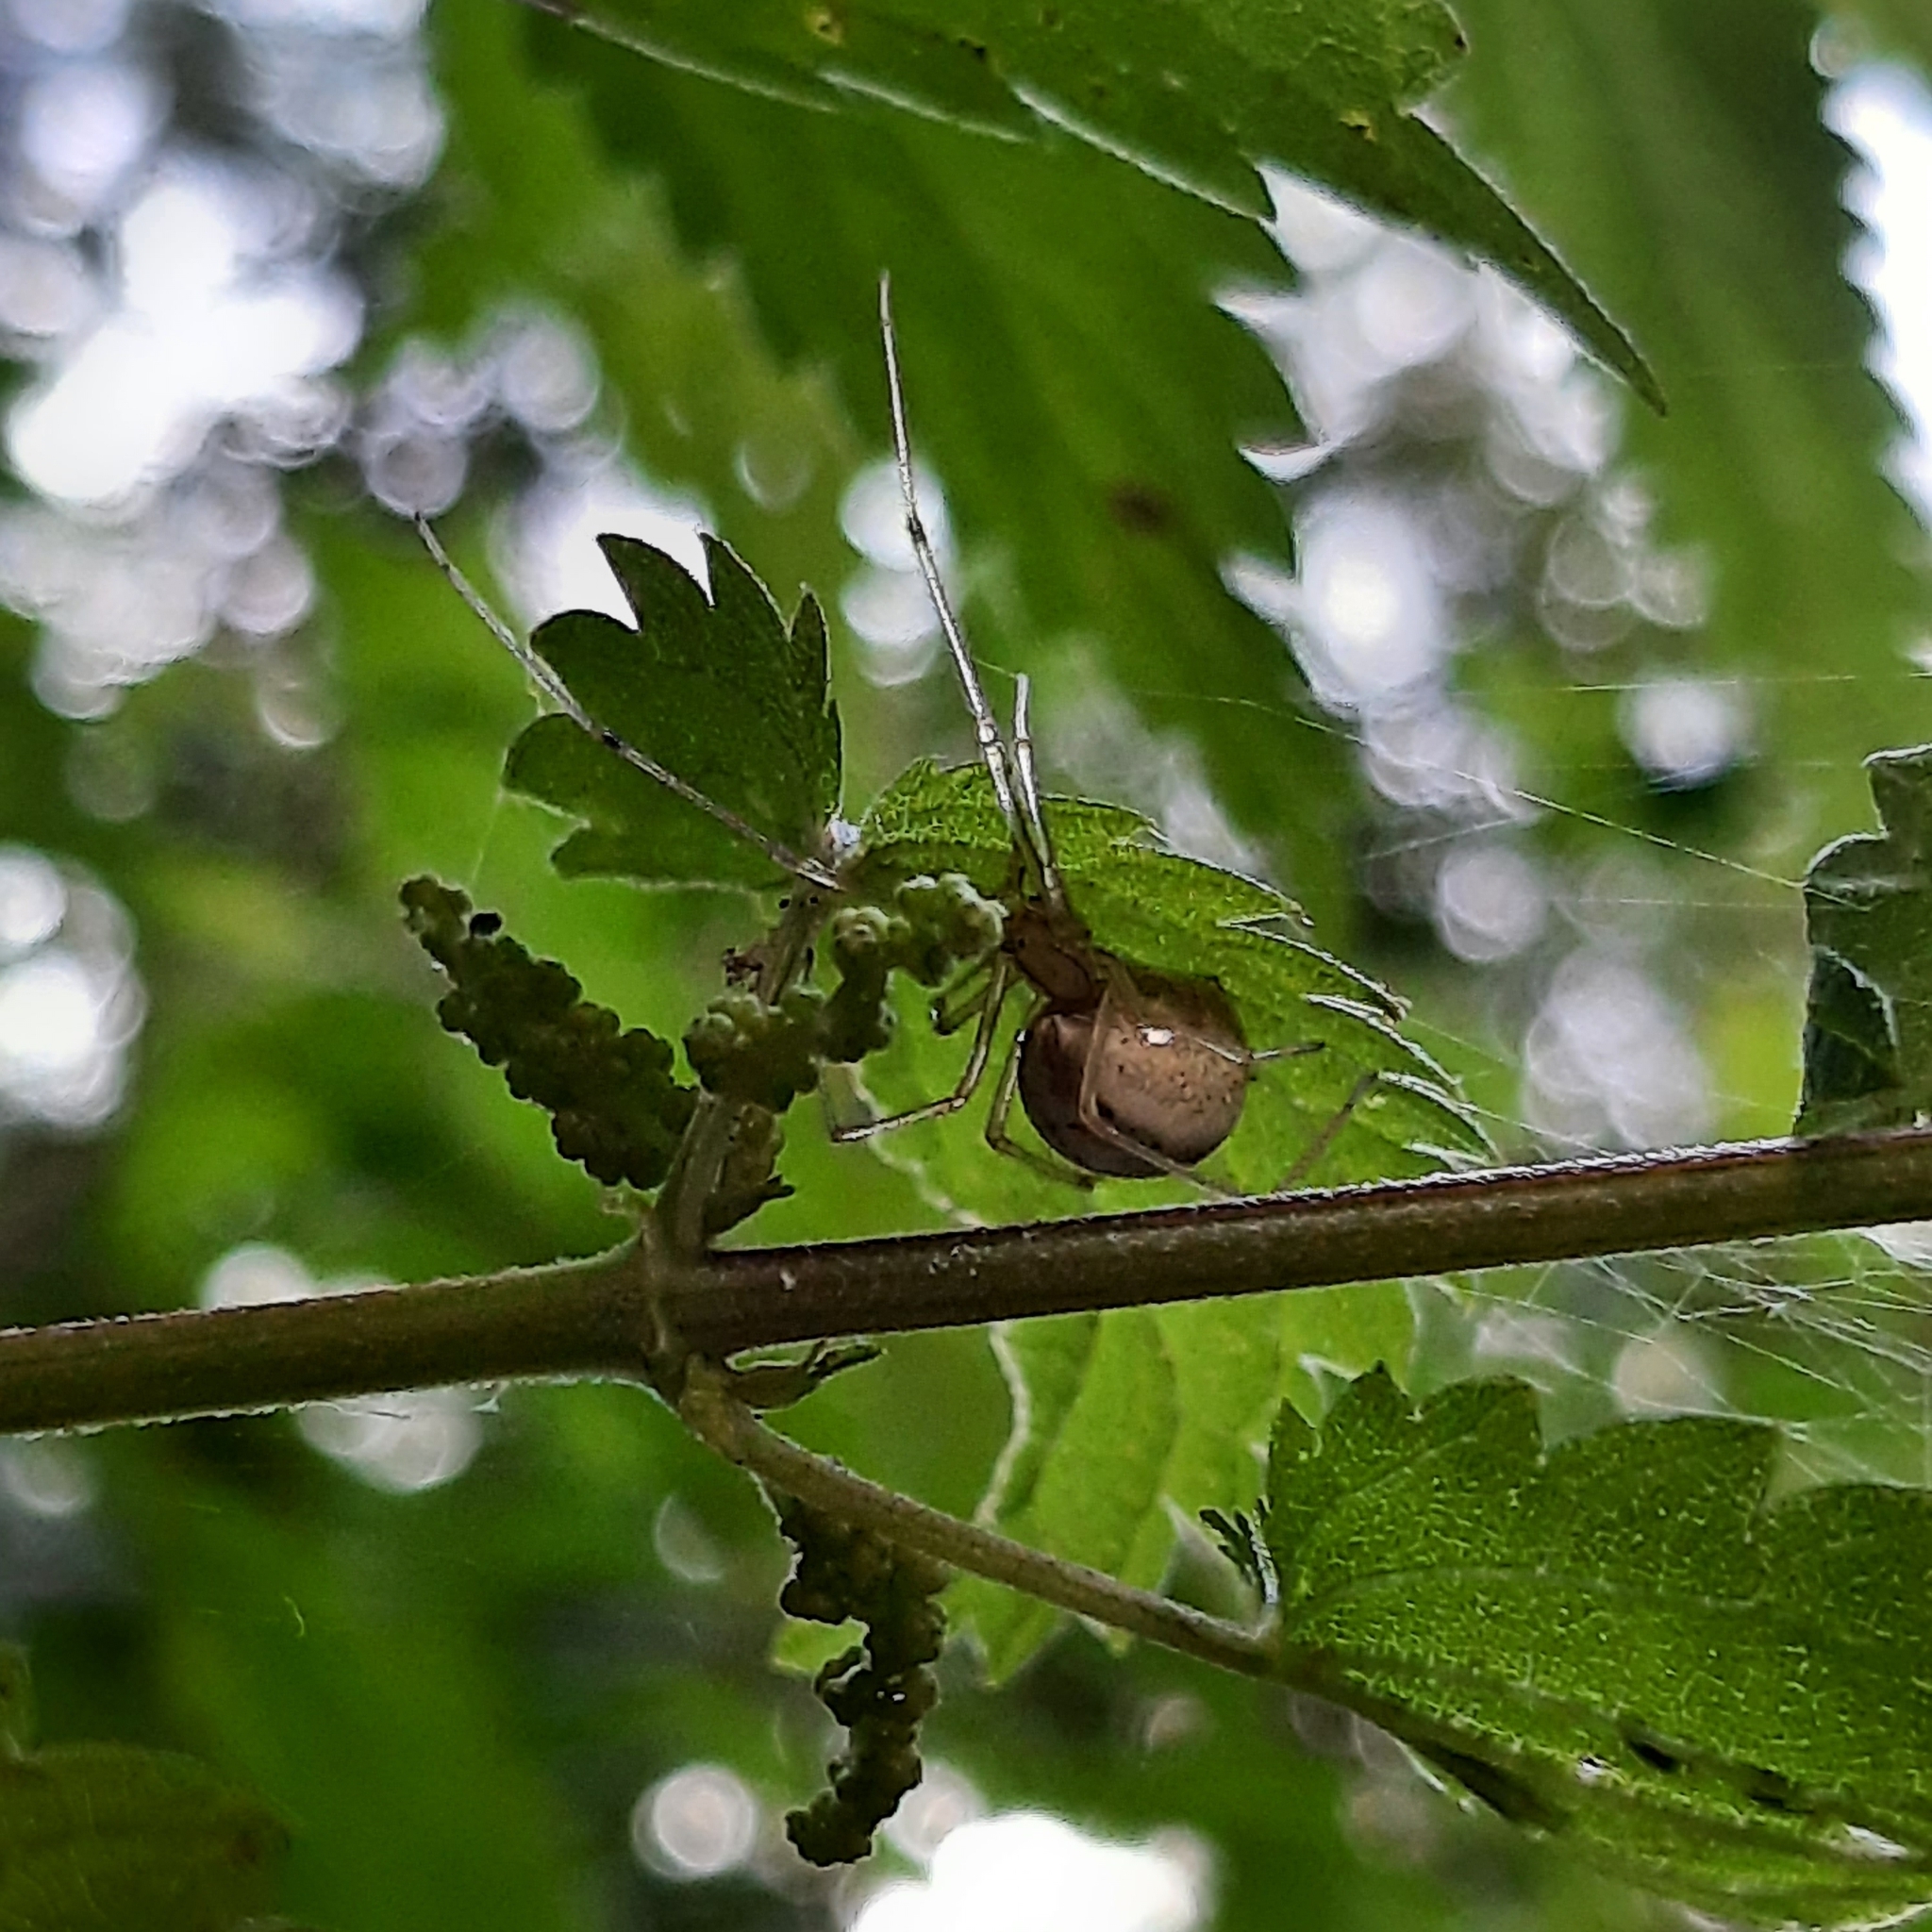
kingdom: Animalia
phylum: Arthropoda
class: Arachnida
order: Araneae
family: Theridiidae
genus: Enoplognatha
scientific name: Enoplognatha ovata
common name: Common candy-striped spider
